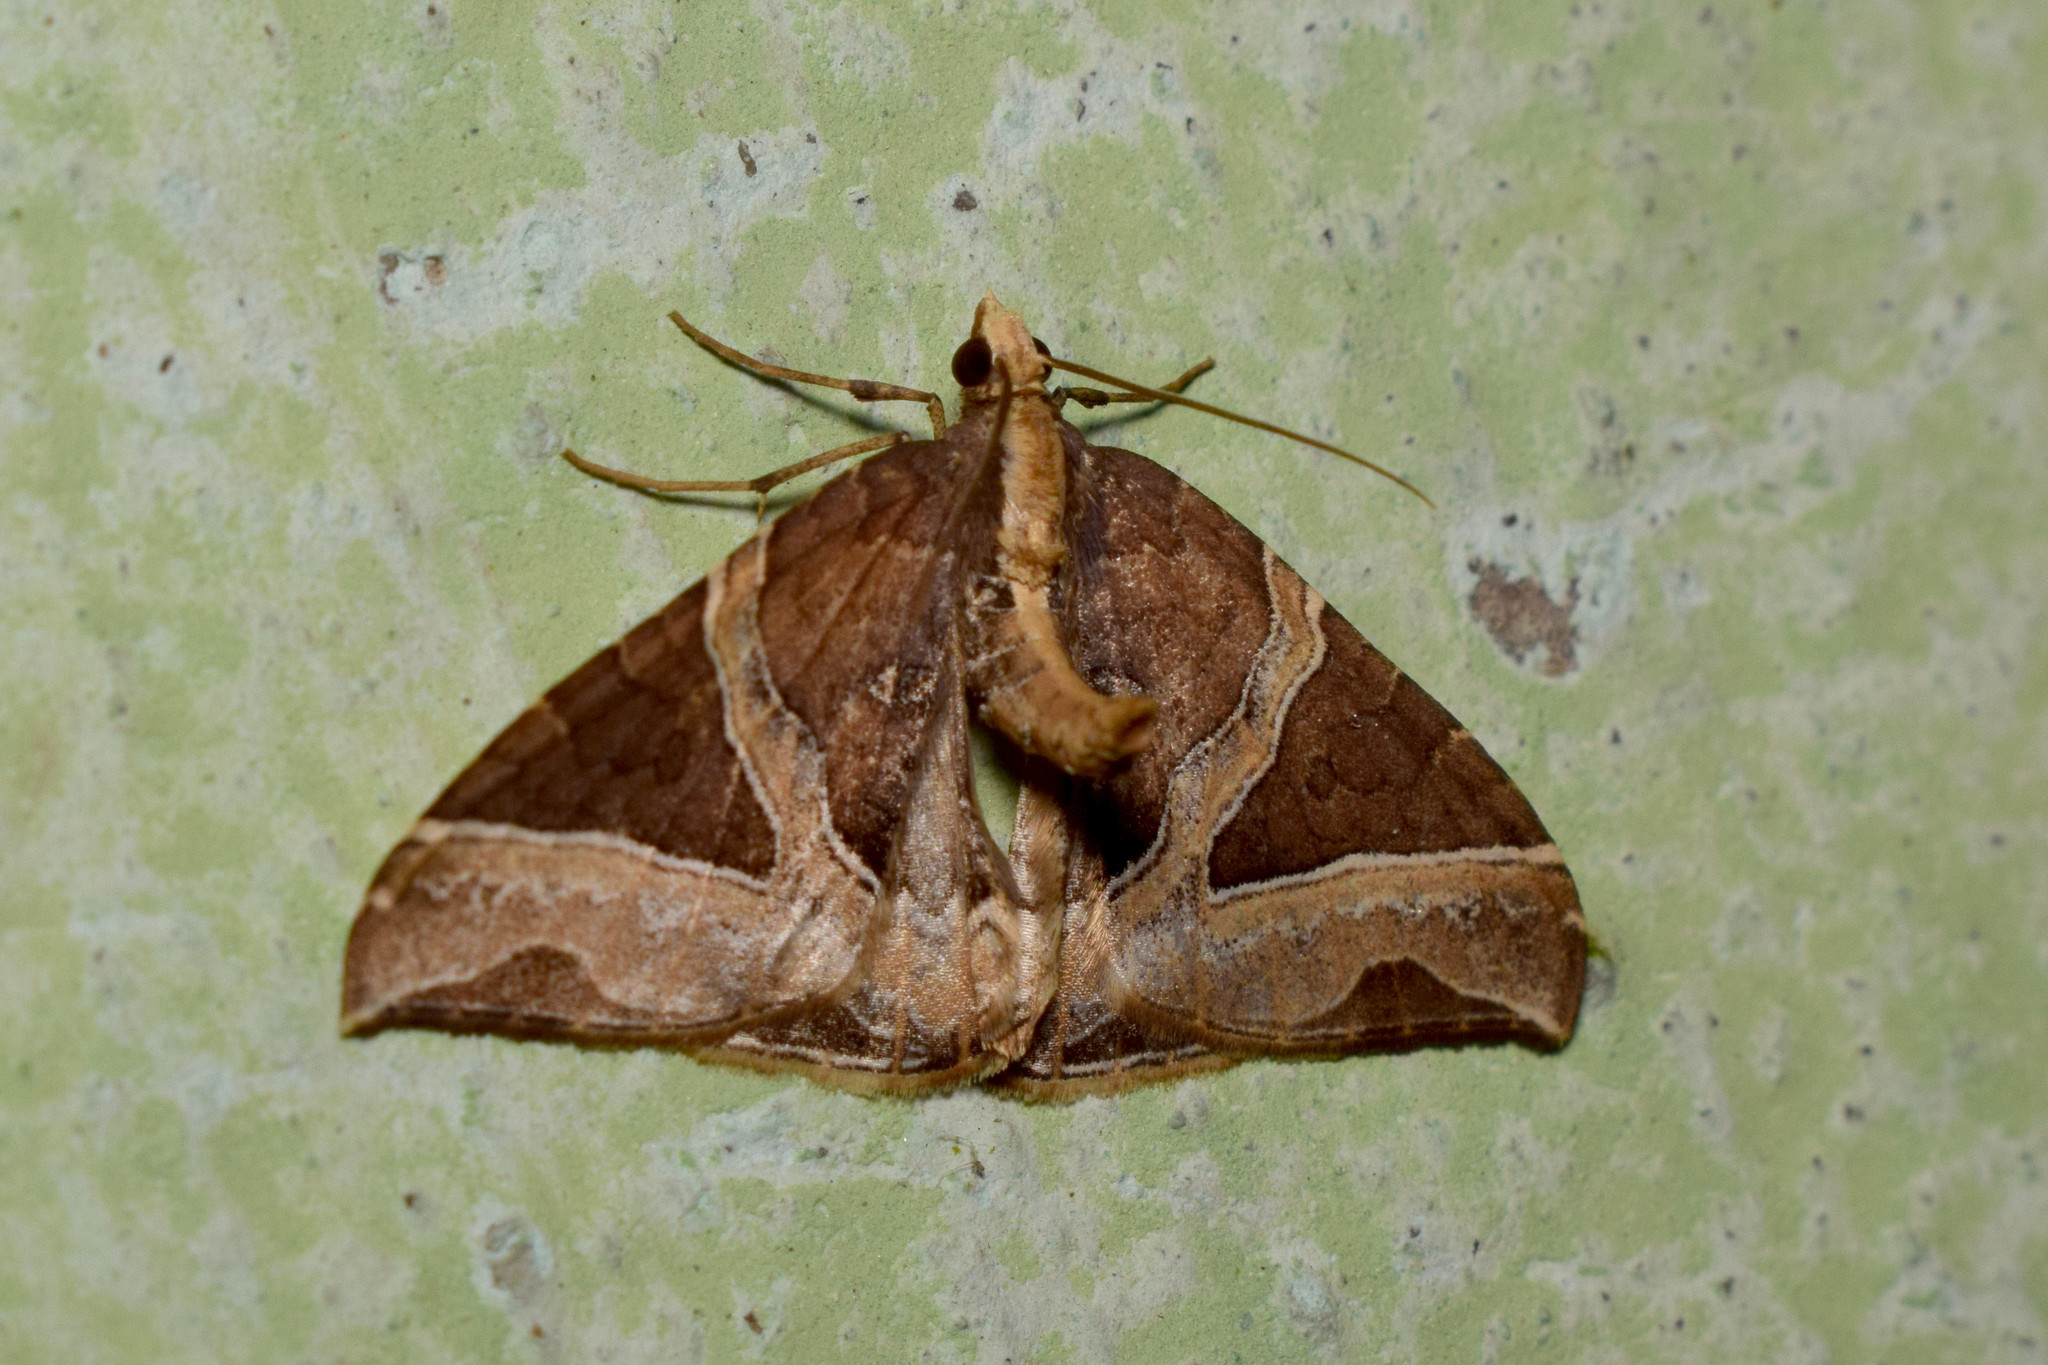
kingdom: Animalia
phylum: Arthropoda
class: Insecta
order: Lepidoptera
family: Geometridae
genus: Ecliptopera
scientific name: Ecliptopera triangulifera
